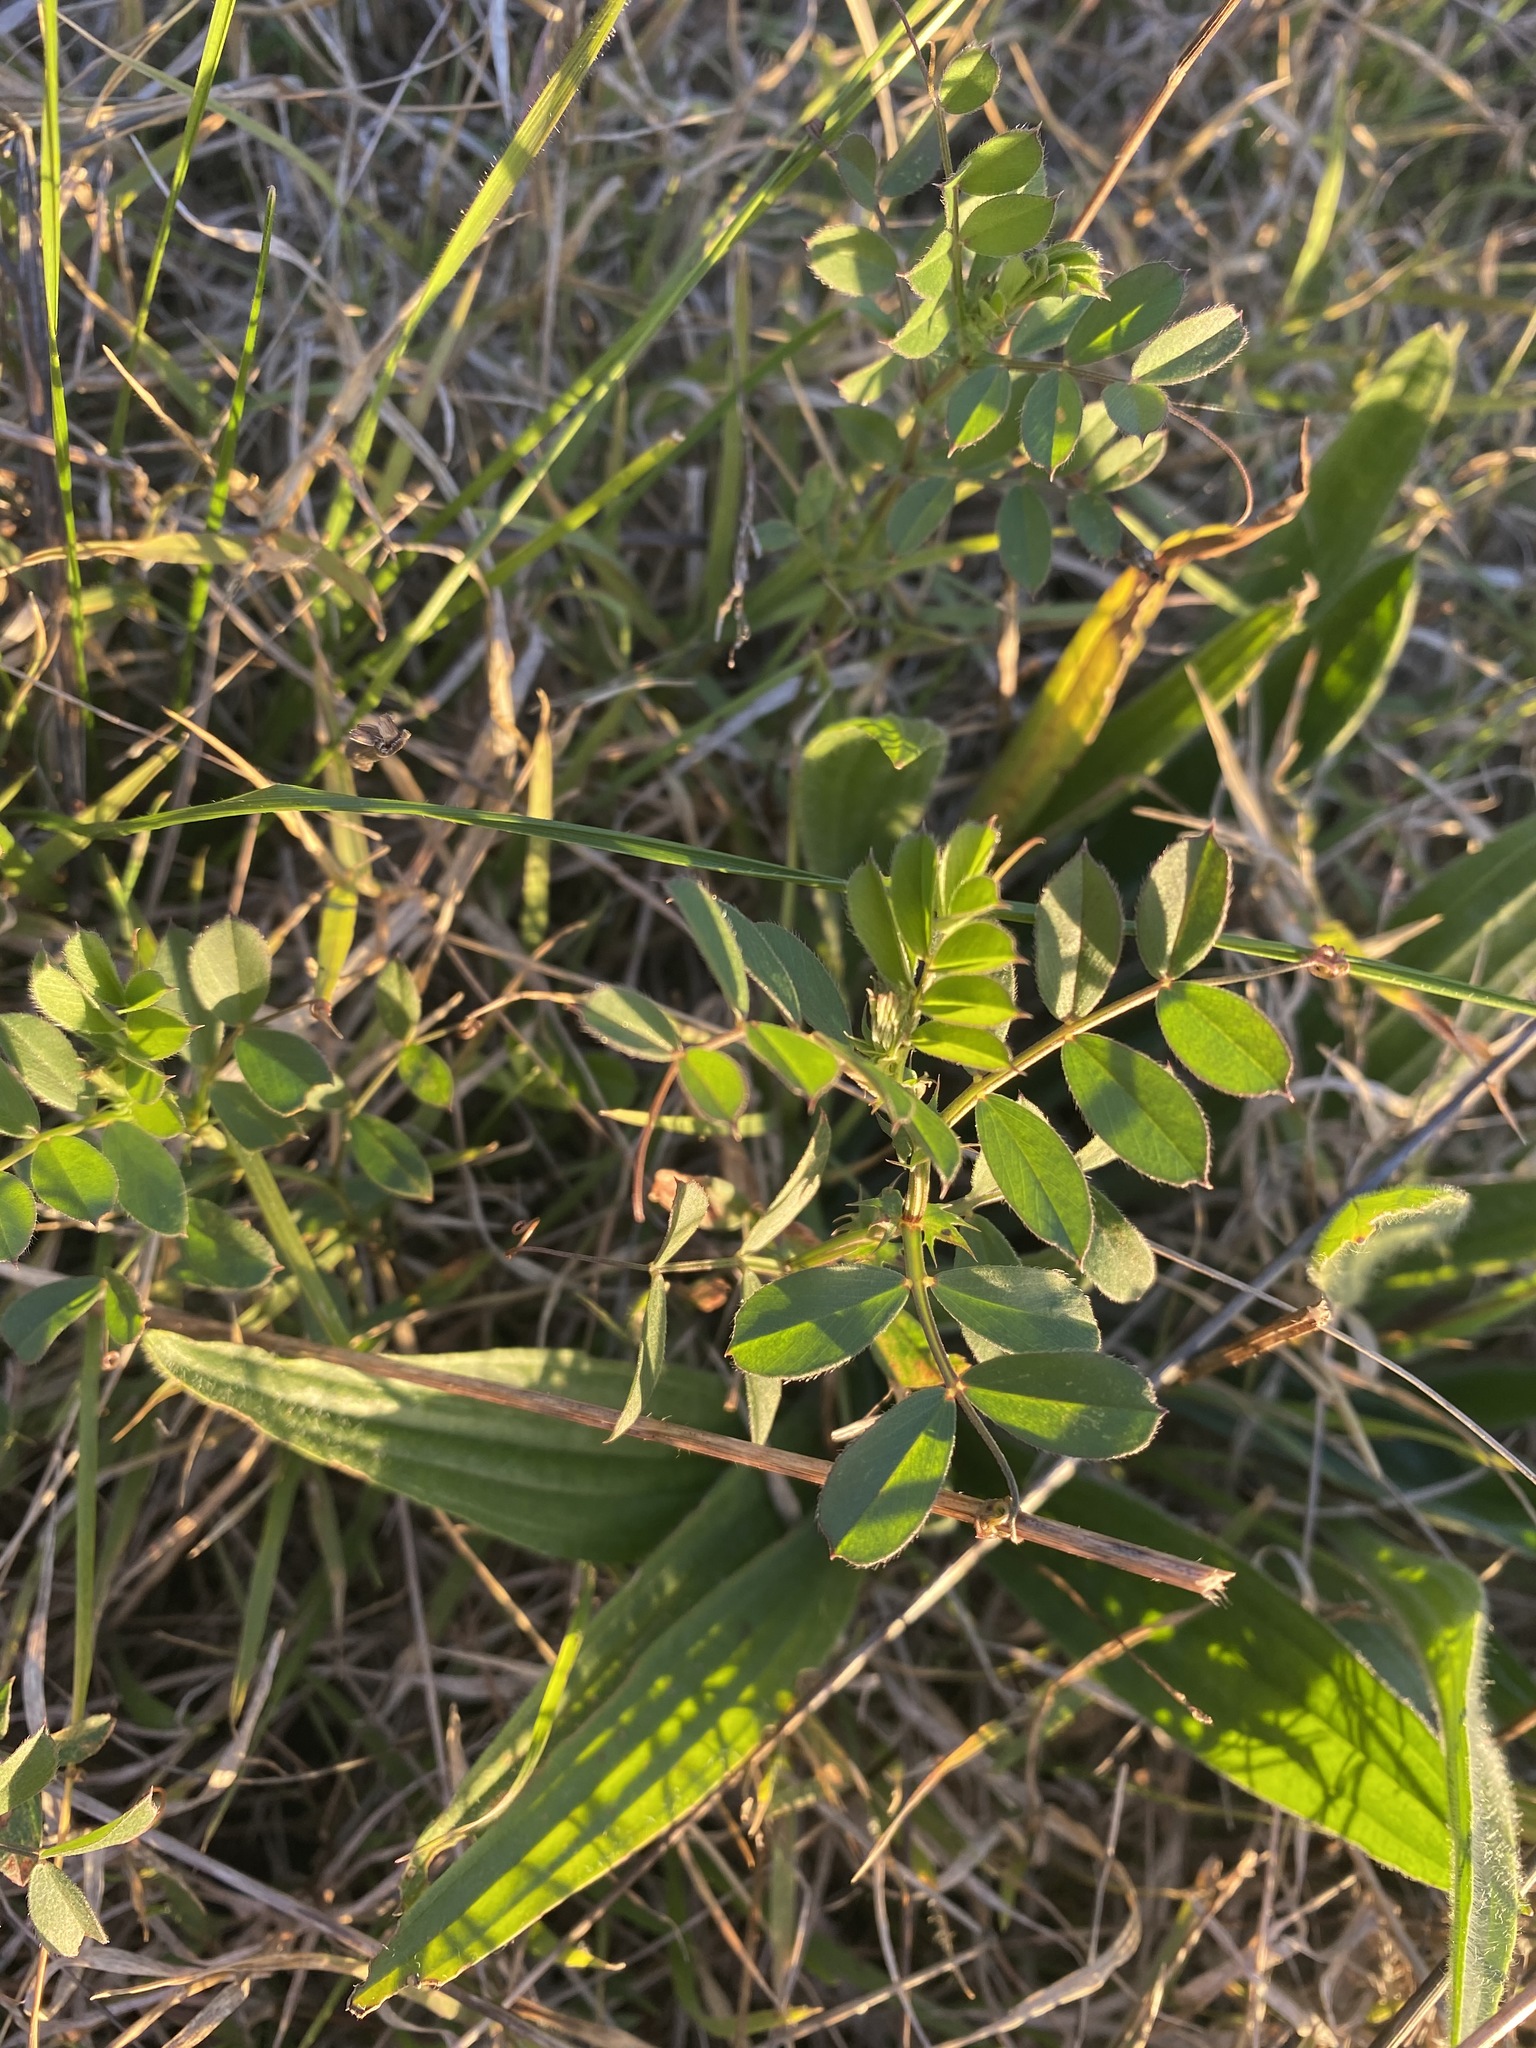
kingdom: Plantae
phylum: Tracheophyta
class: Magnoliopsida
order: Fabales
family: Fabaceae
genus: Vicia
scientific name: Vicia sativa
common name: Garden vetch
